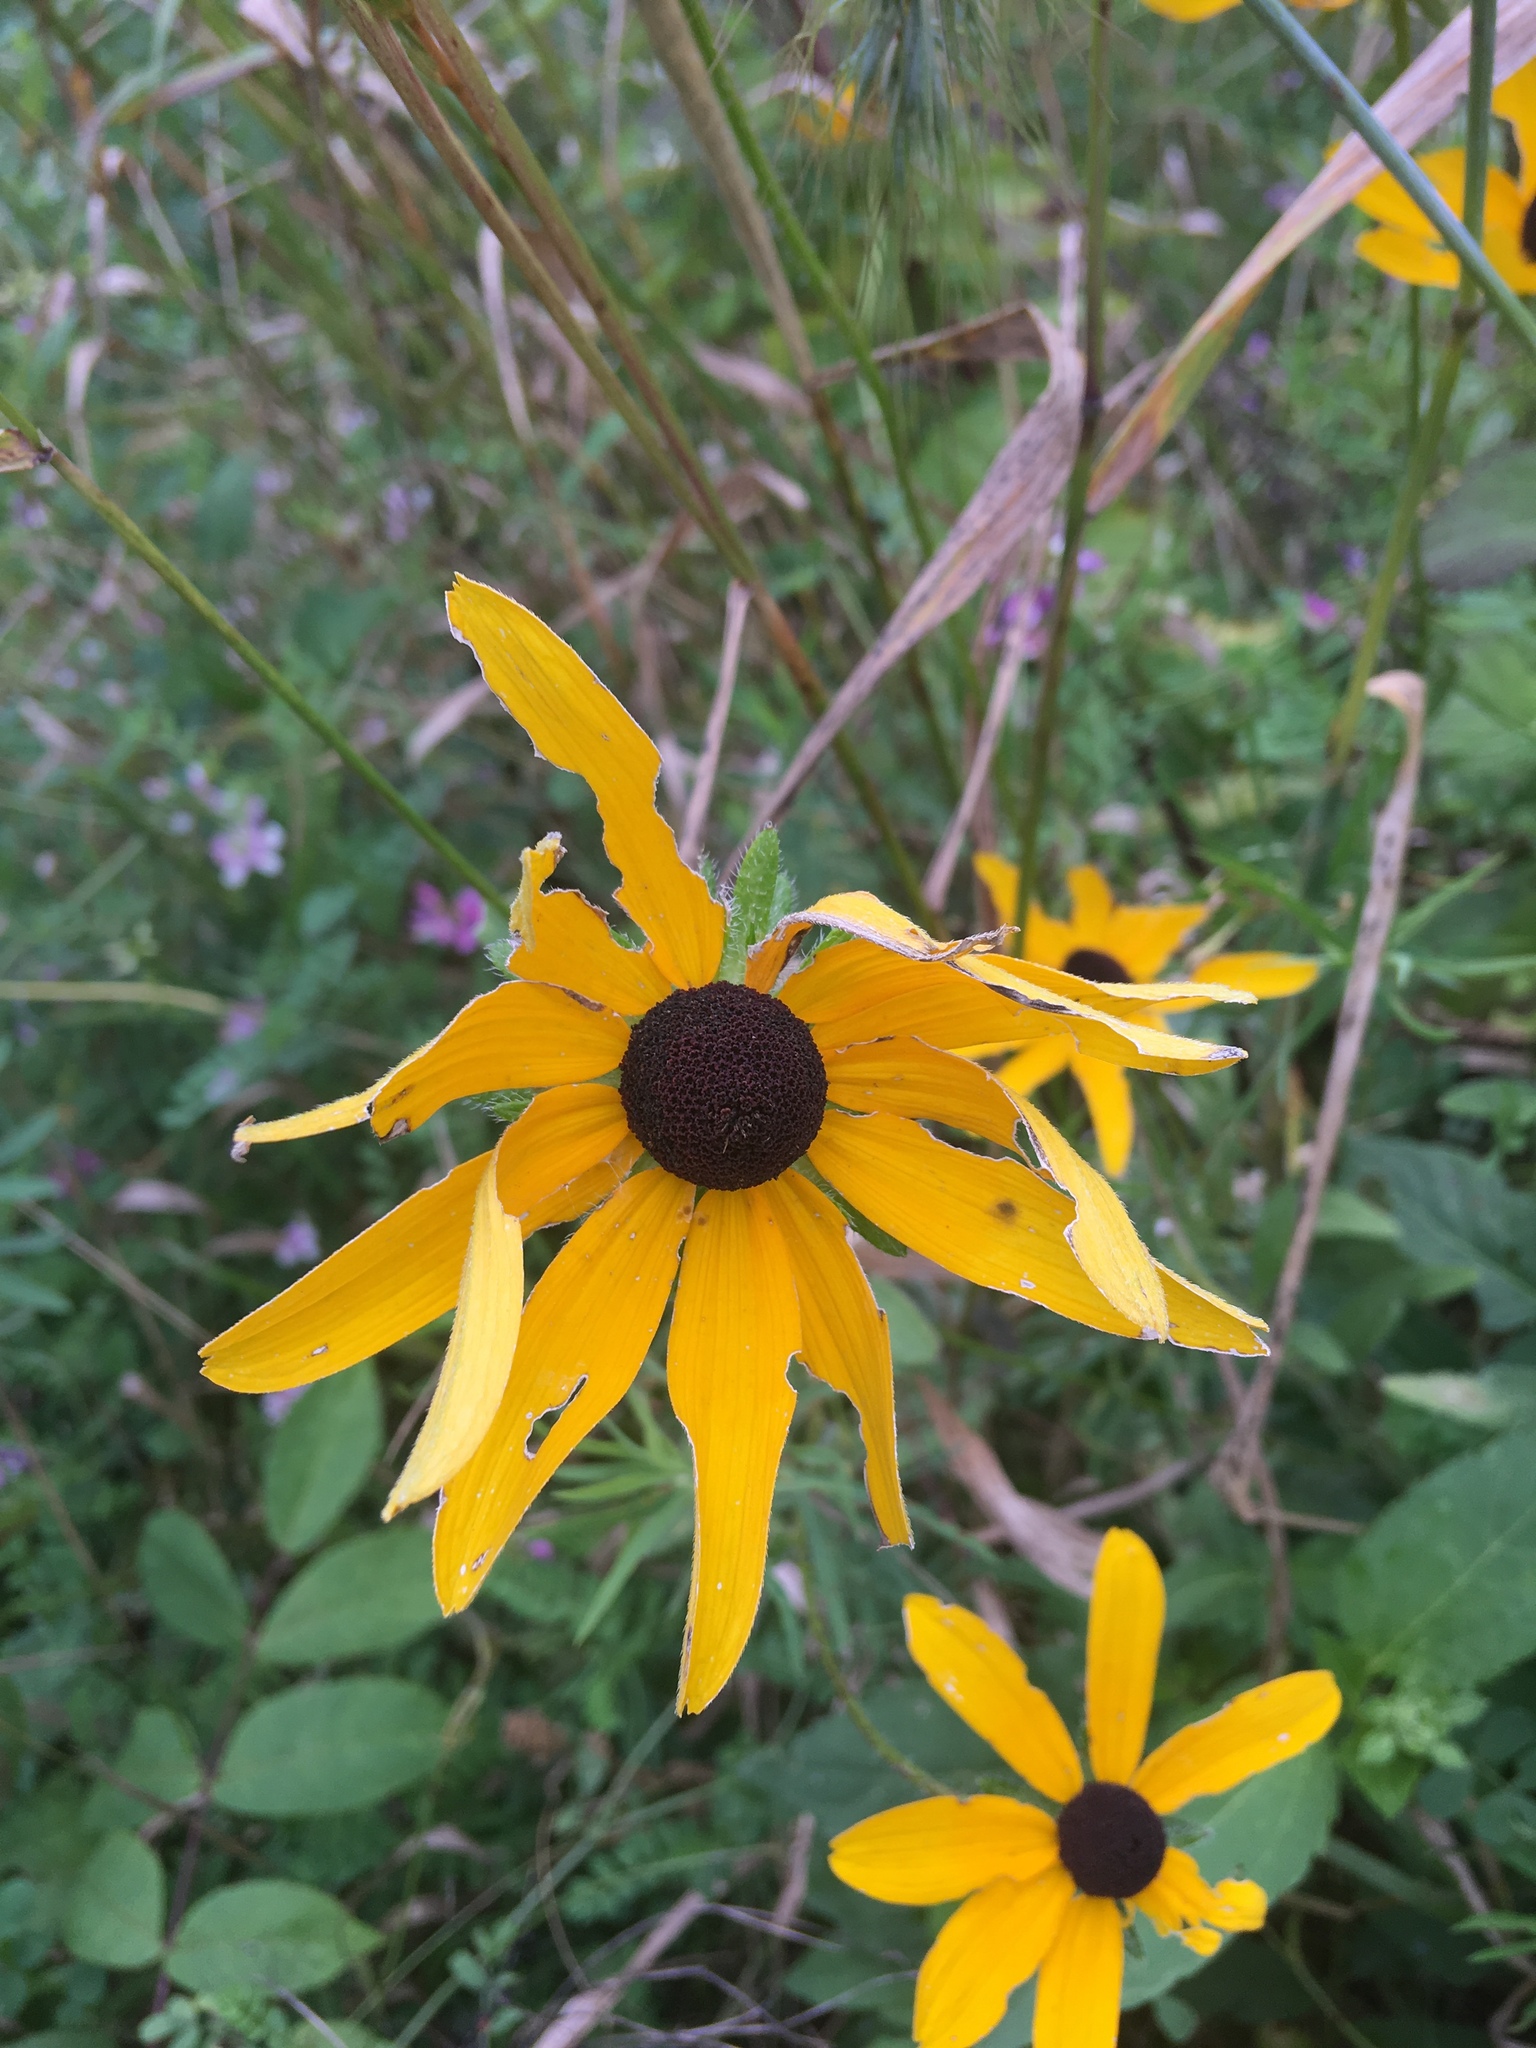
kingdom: Plantae
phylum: Tracheophyta
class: Magnoliopsida
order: Asterales
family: Asteraceae
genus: Rudbeckia
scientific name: Rudbeckia hirta
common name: Black-eyed-susan
